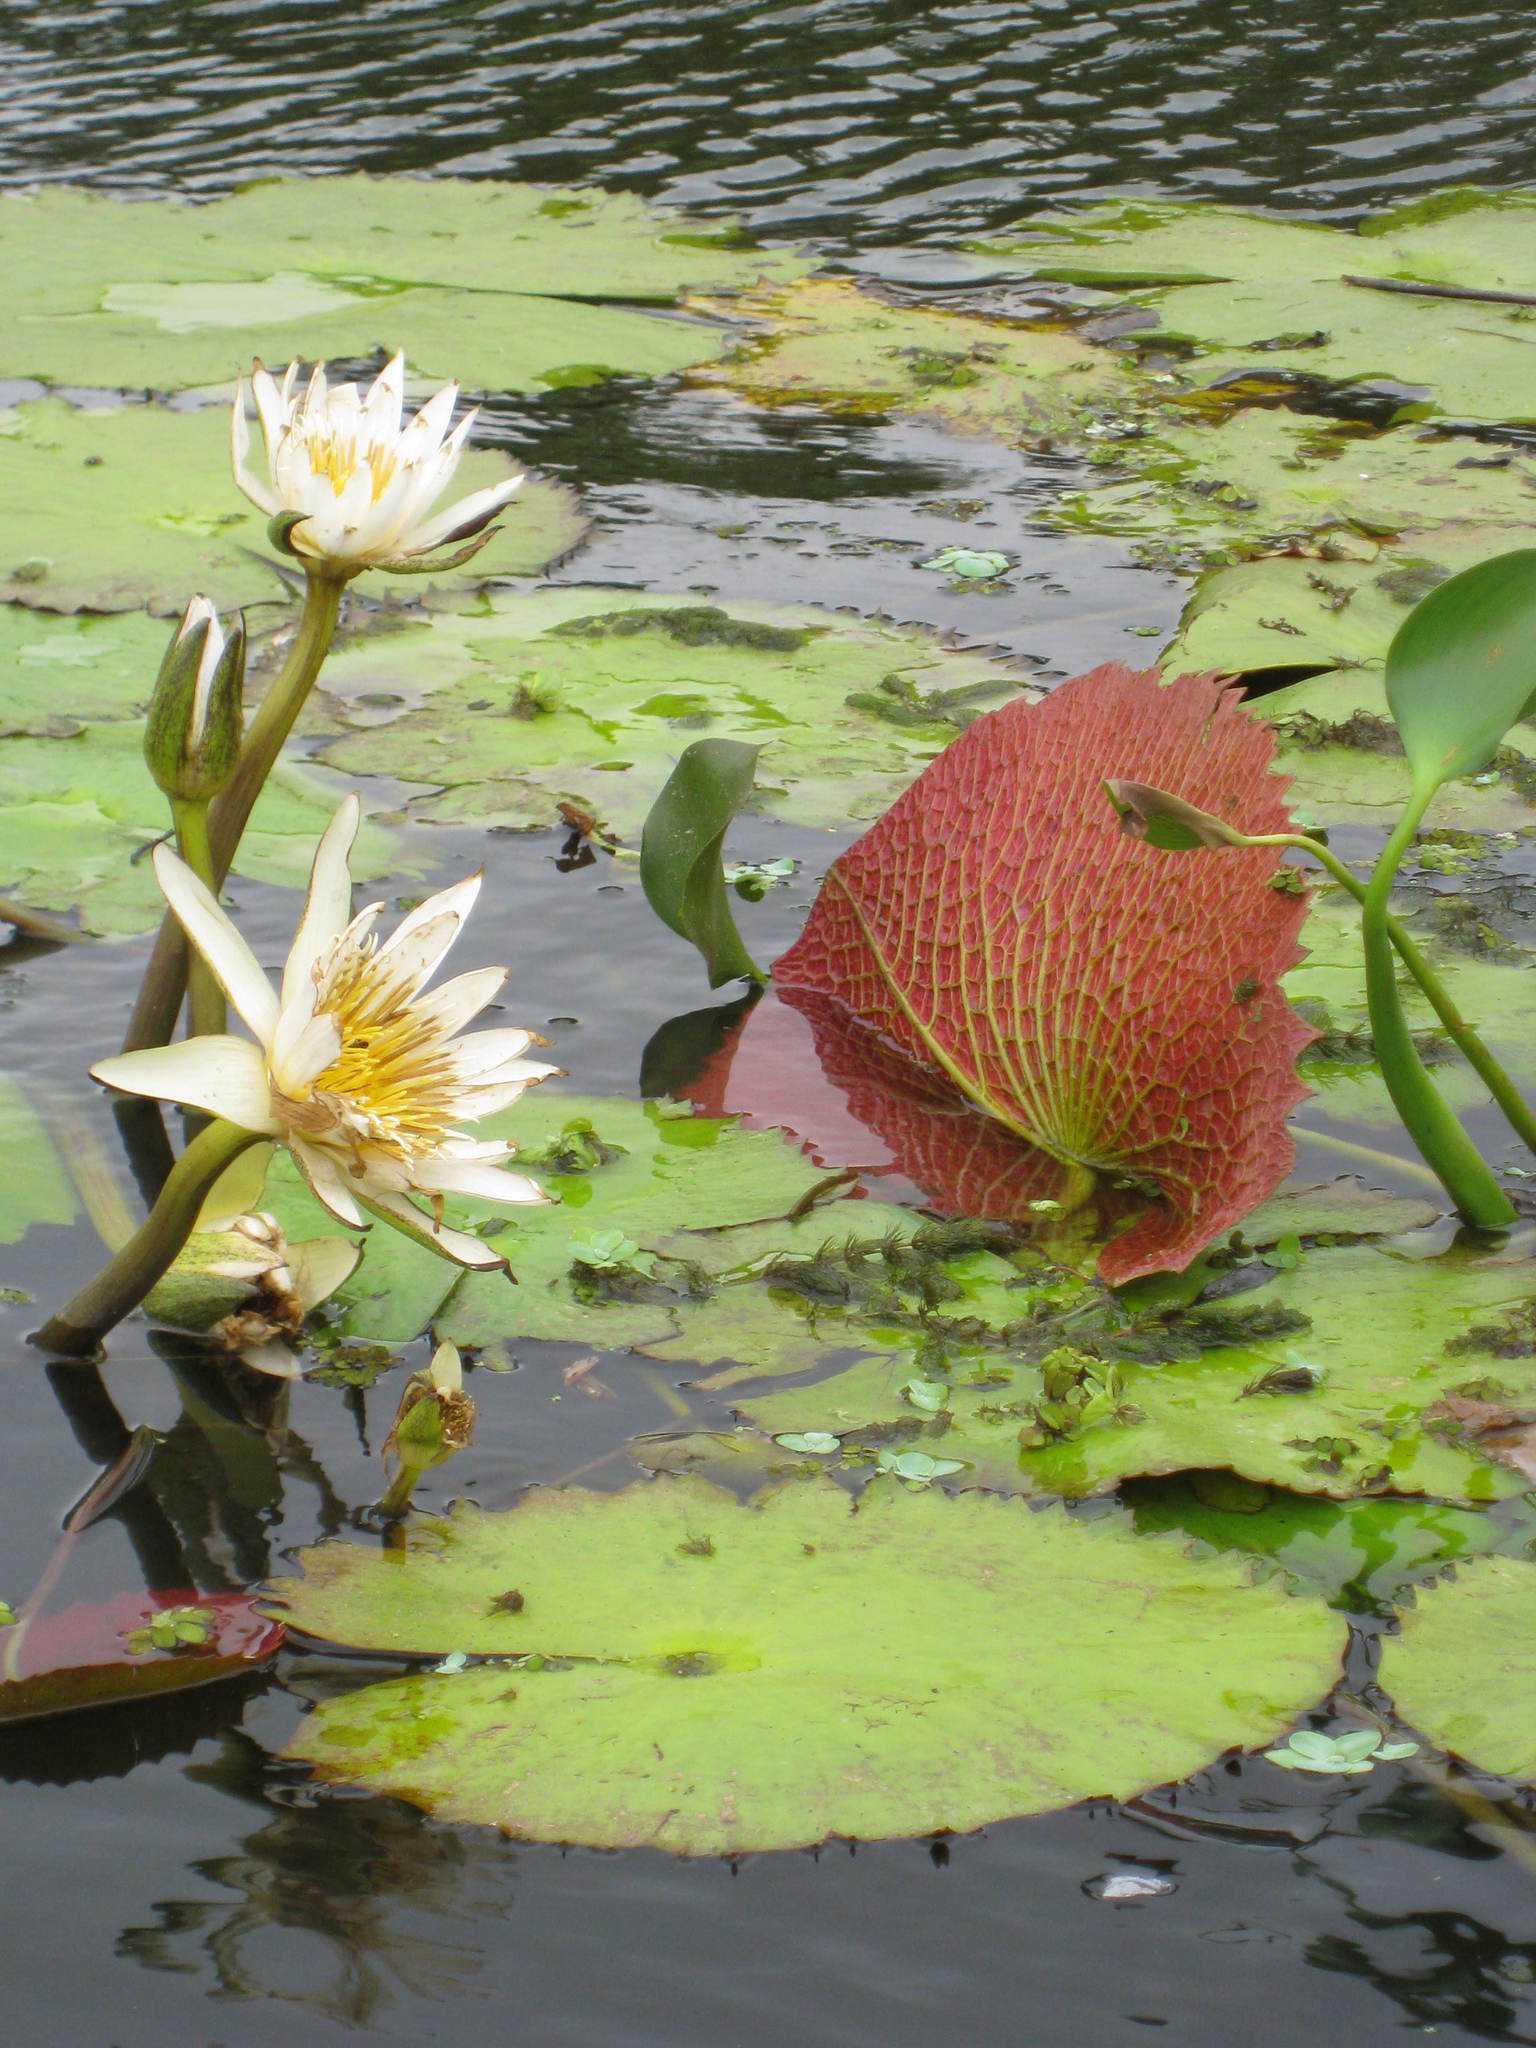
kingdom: Plantae
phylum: Tracheophyta
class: Magnoliopsida
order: Nymphaeales
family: Nymphaeaceae
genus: Nymphaea
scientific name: Nymphaea ampla
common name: Dotleaf waterlily
